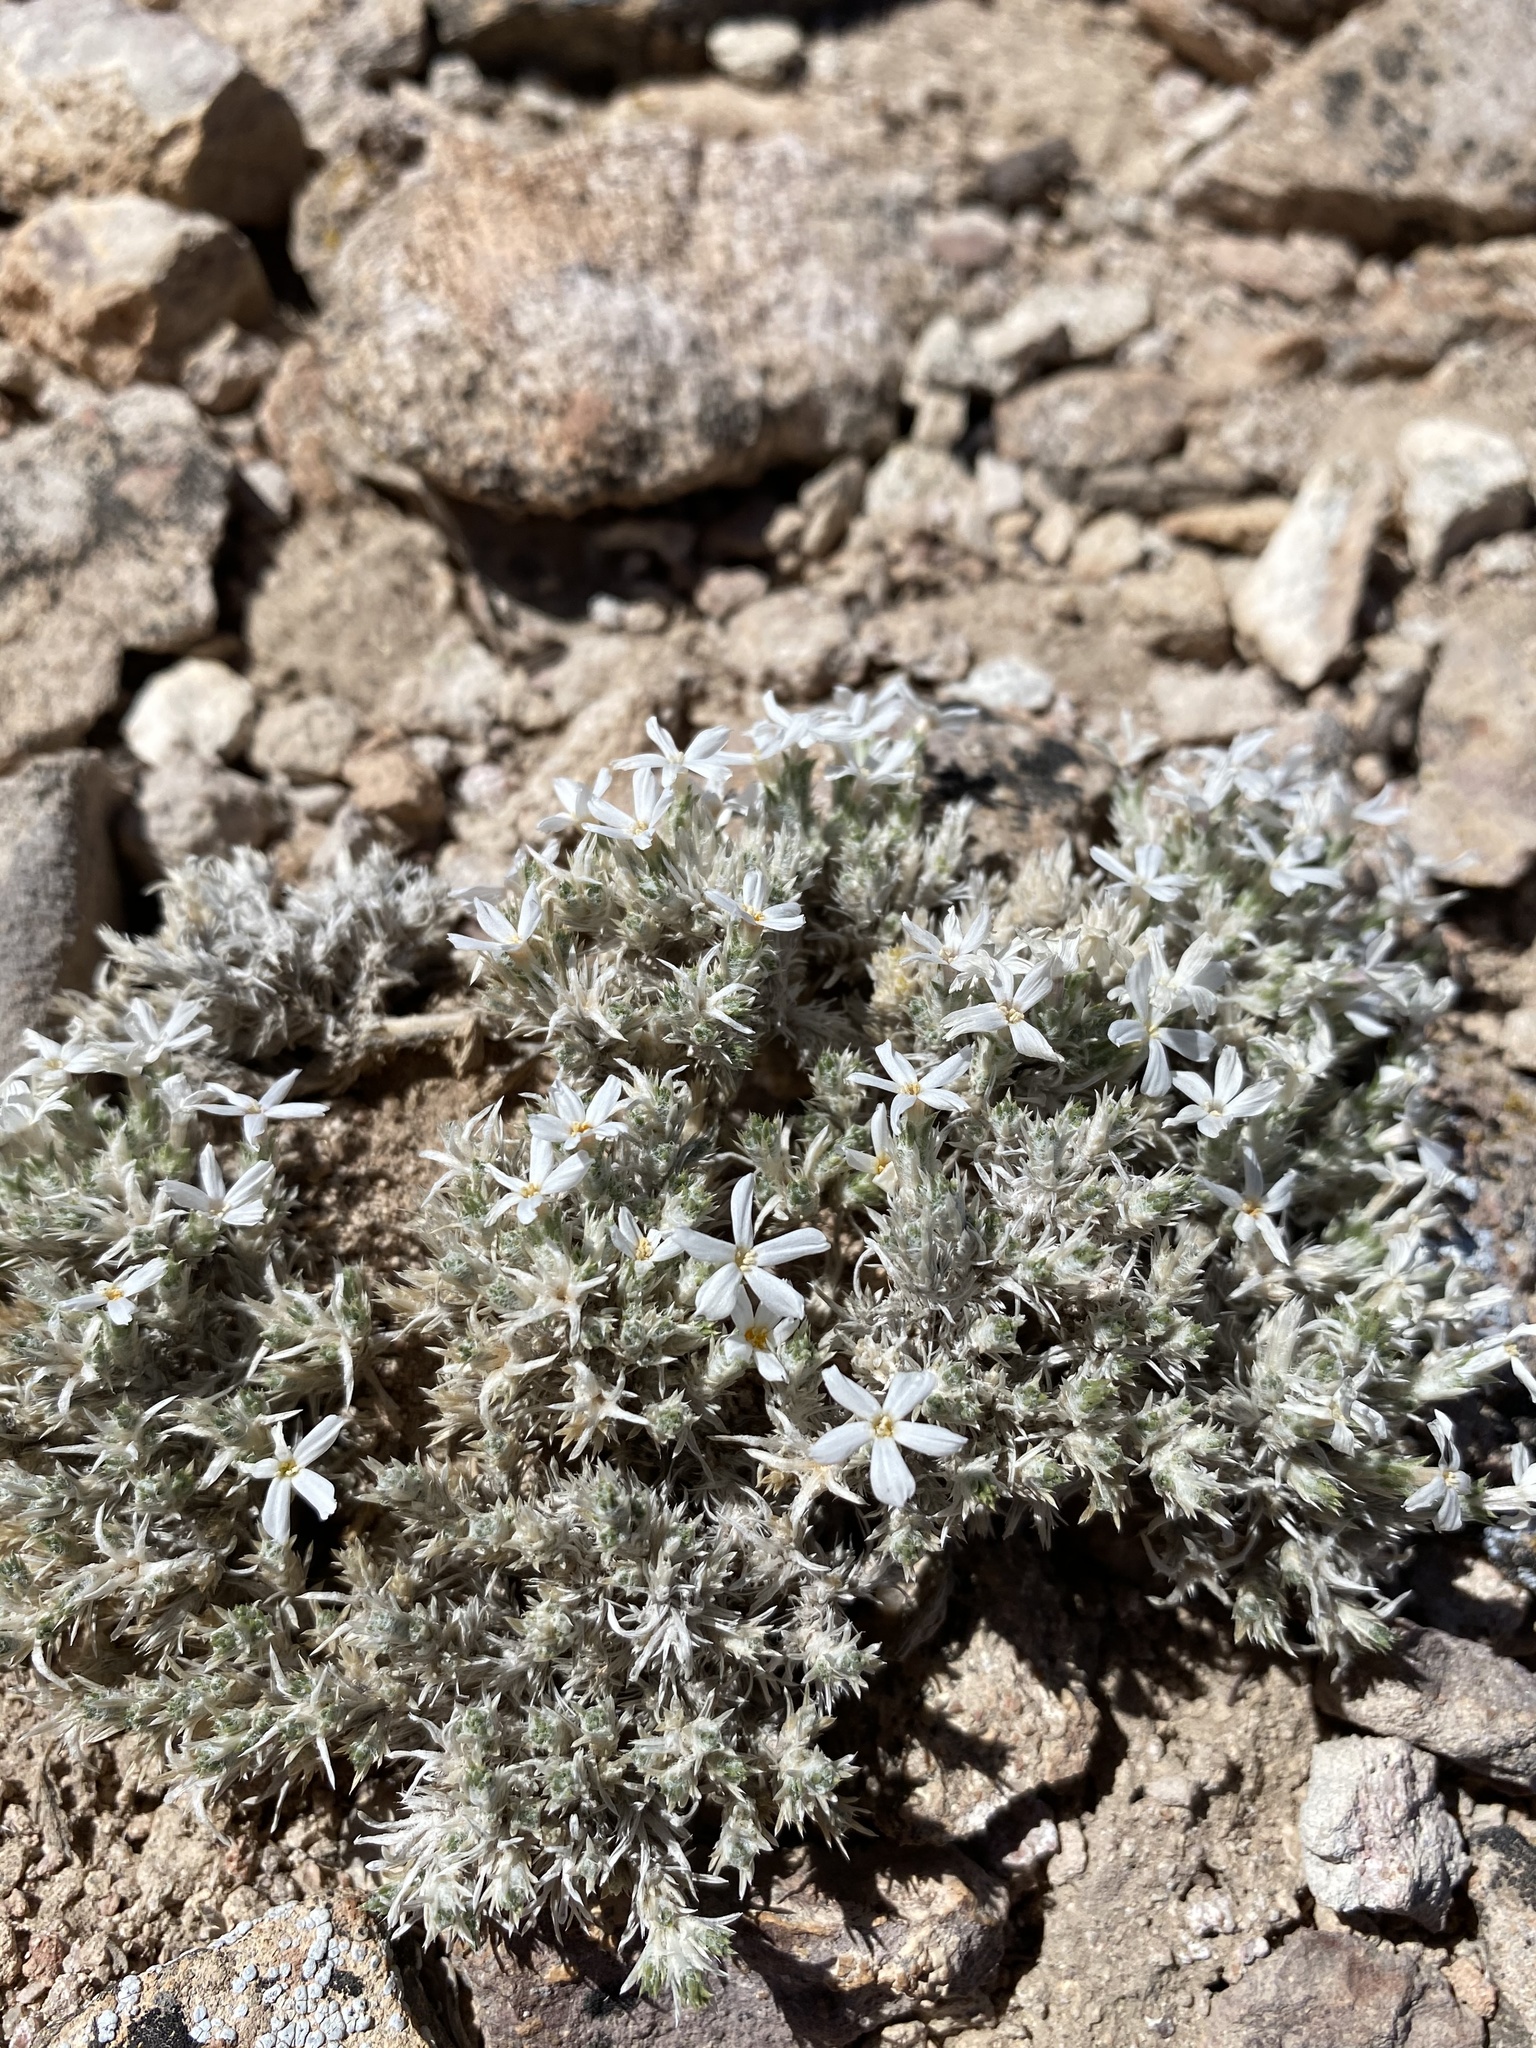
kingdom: Plantae
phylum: Tracheophyta
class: Magnoliopsida
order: Ericales
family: Polemoniaceae
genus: Phlox
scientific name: Phlox hoodii
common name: Moss phlox
